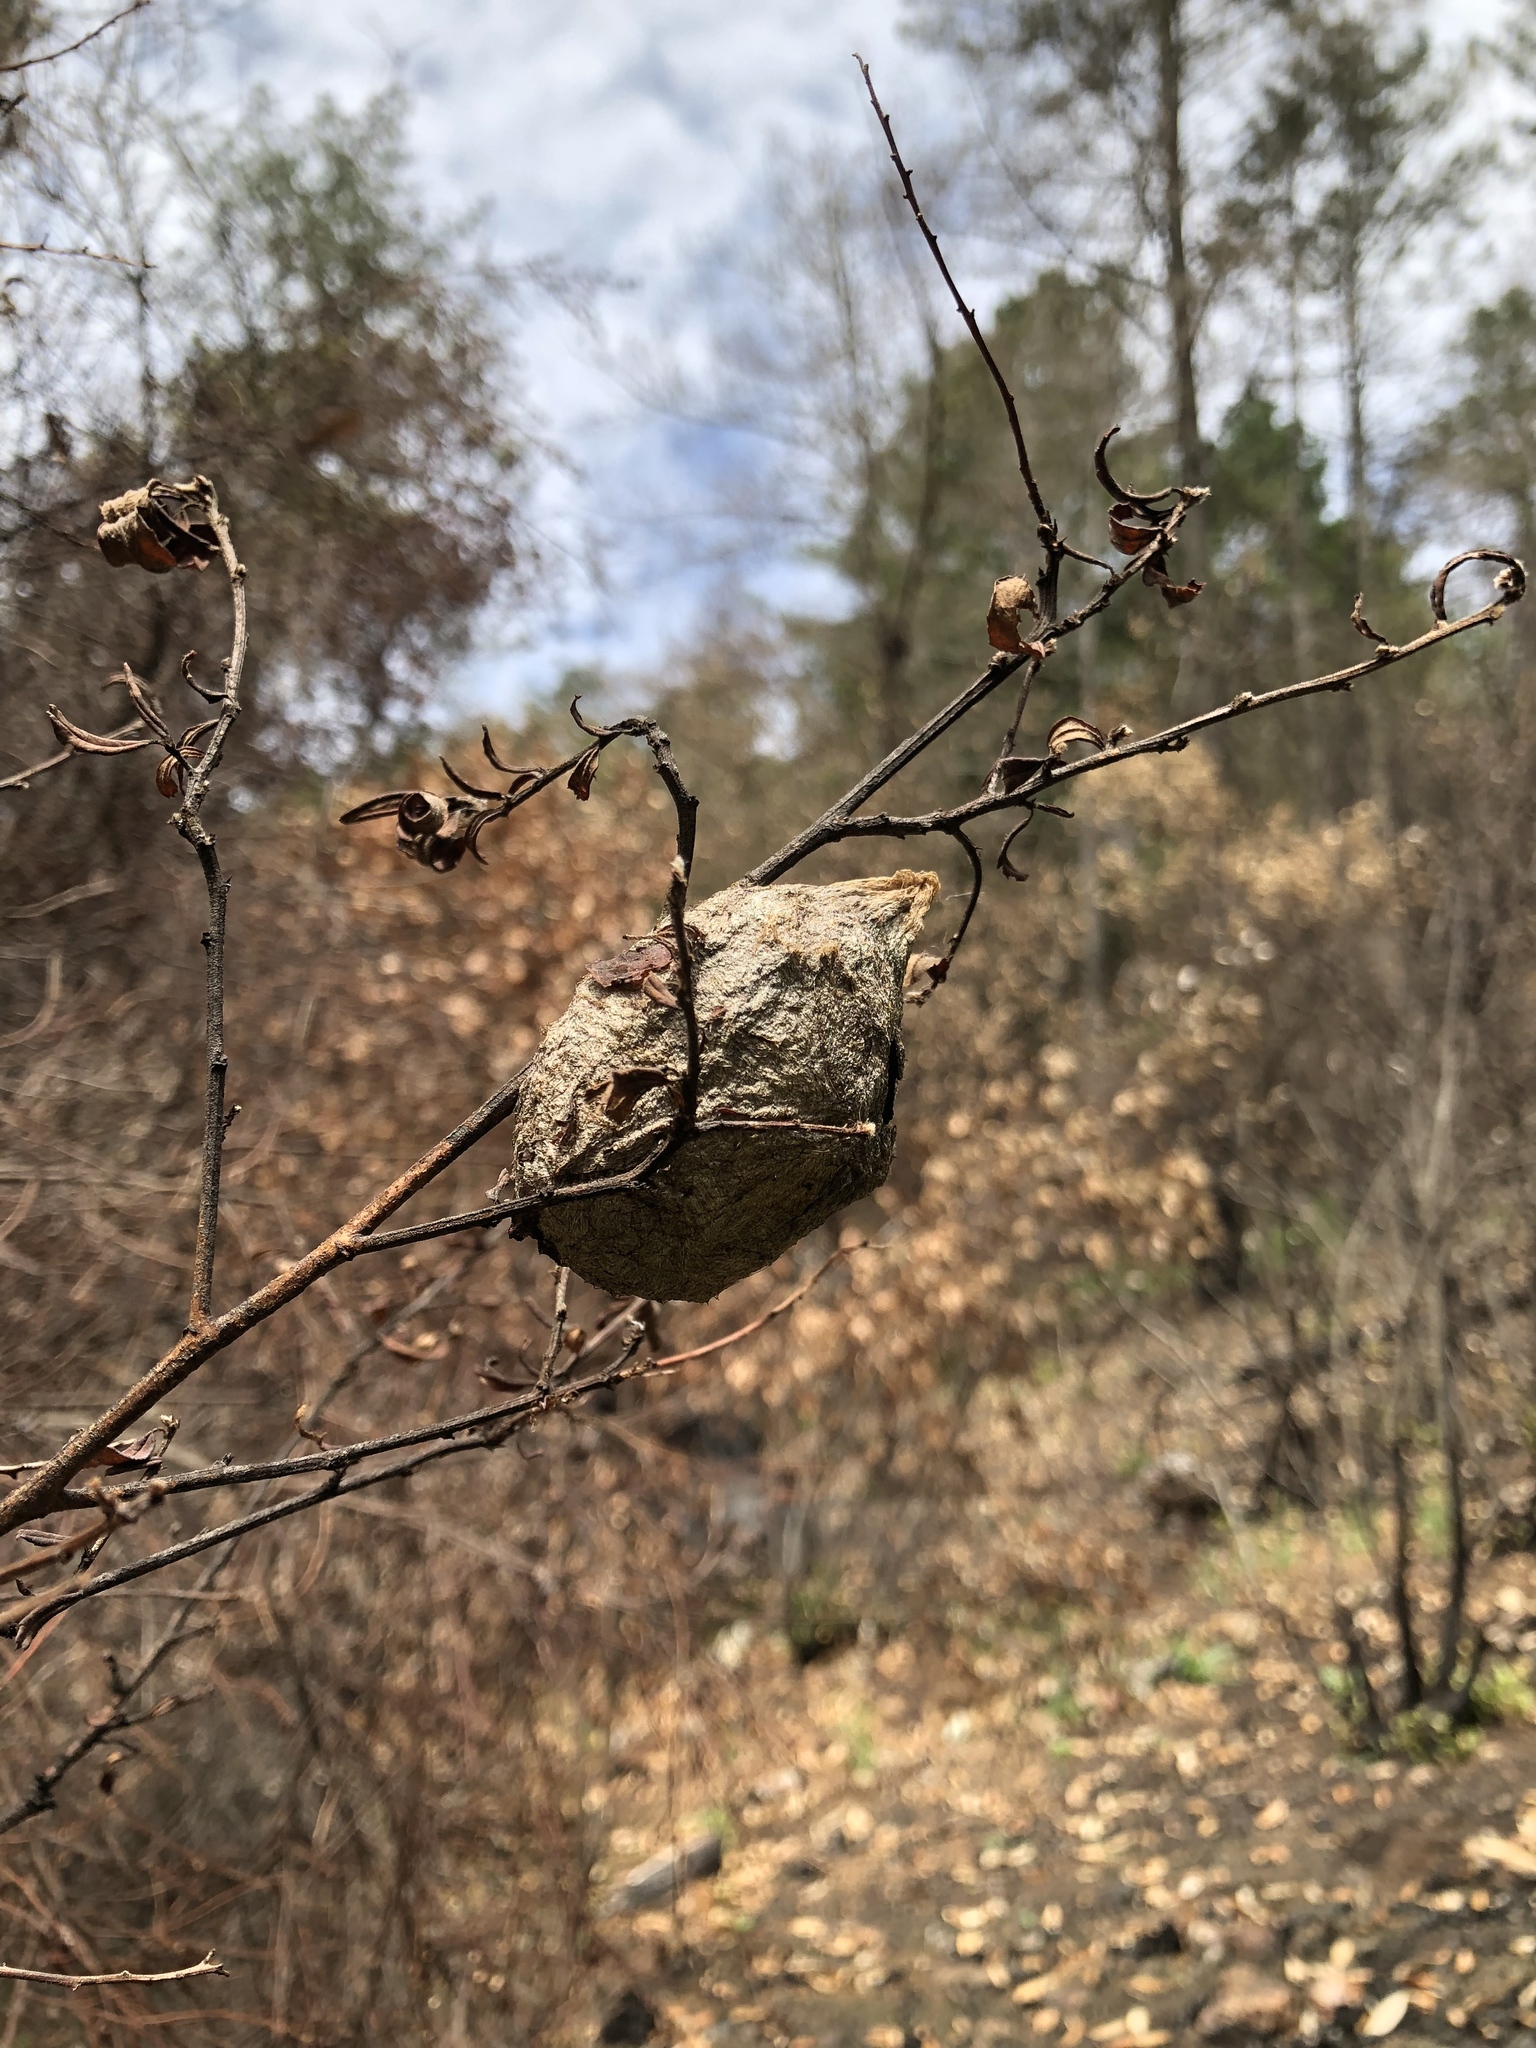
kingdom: Animalia
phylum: Arthropoda
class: Insecta
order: Lepidoptera
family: Saturniidae
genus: Hyalophora
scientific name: Hyalophora euryalus
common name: Ceanothus silkmoth
